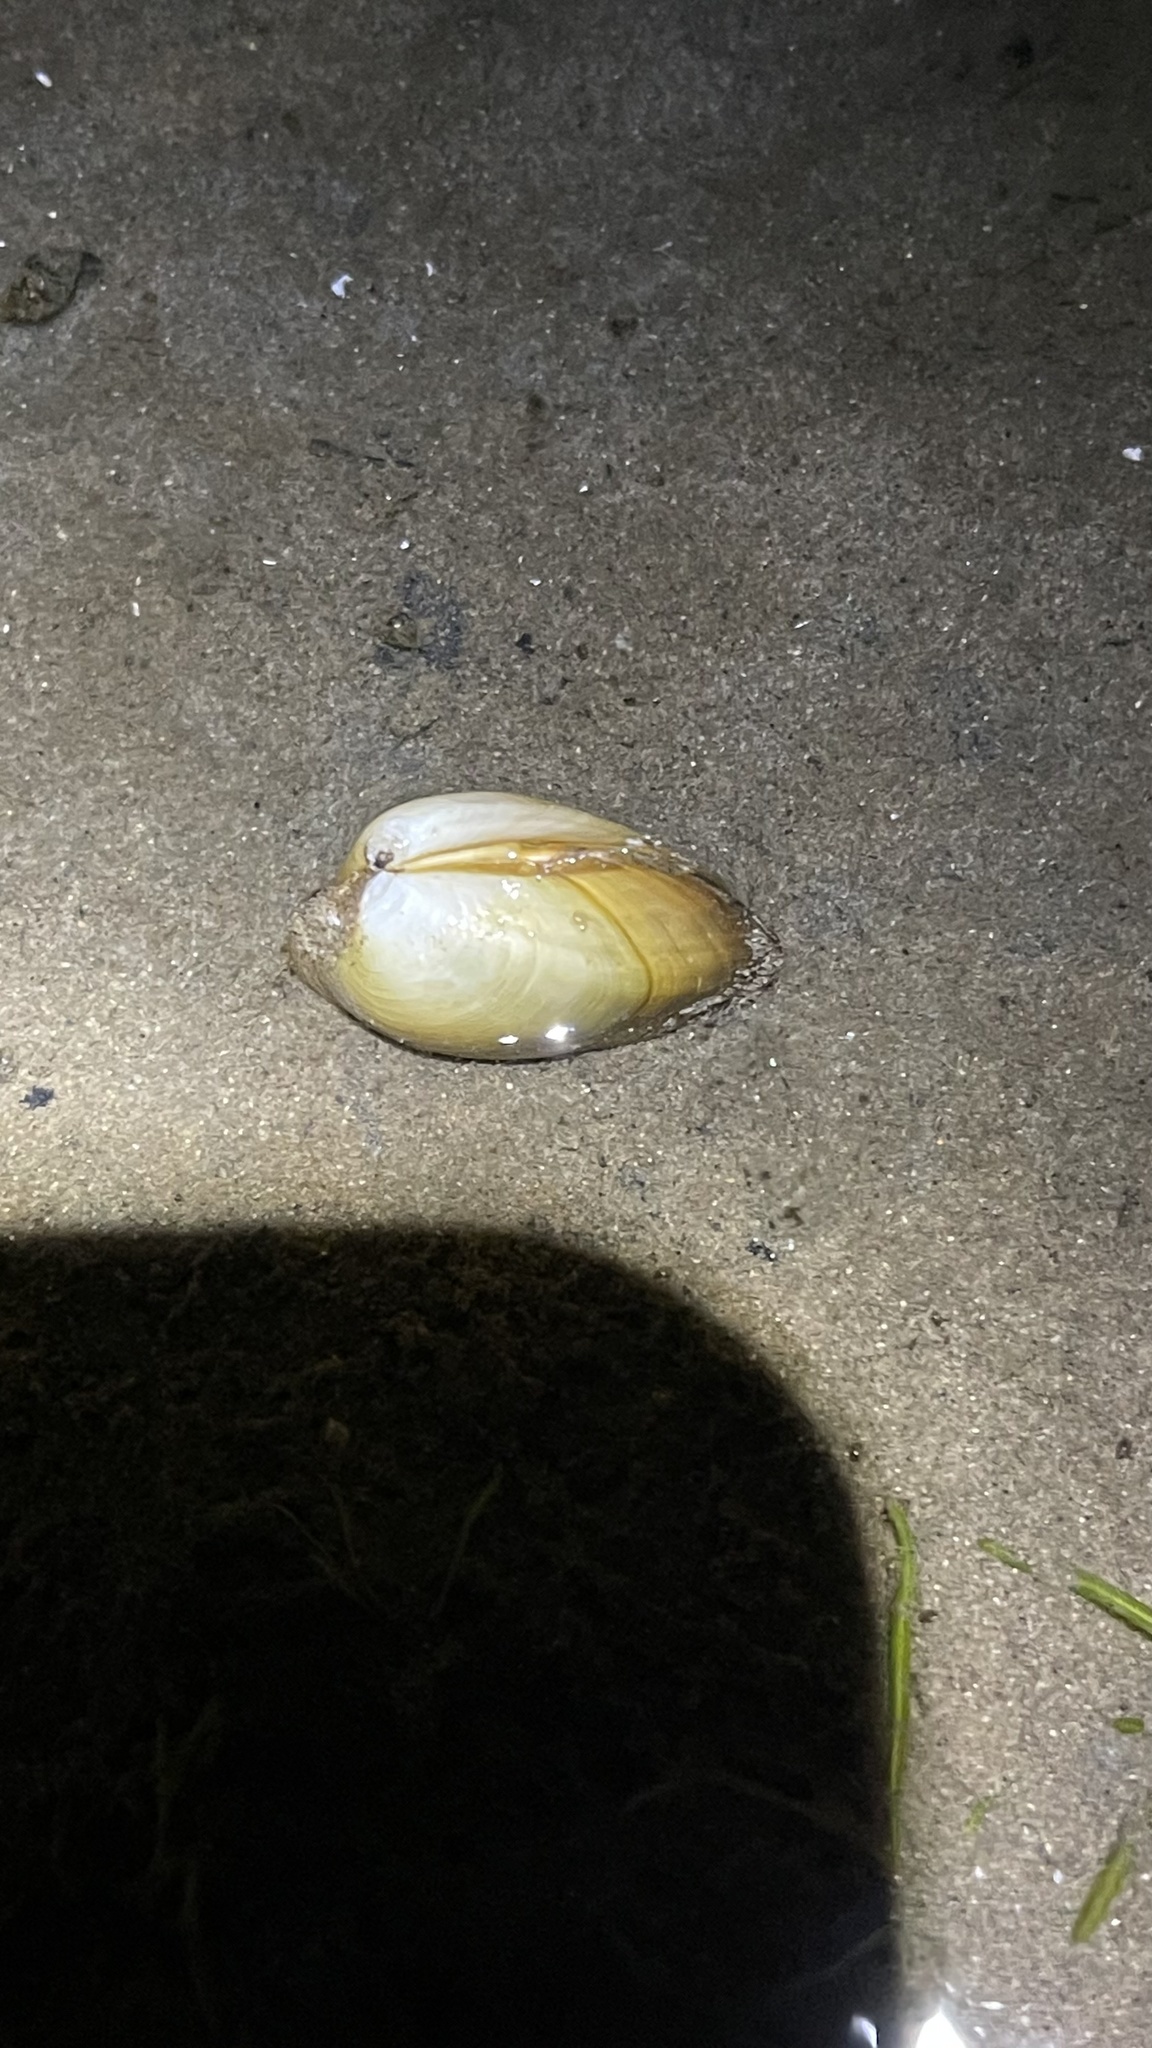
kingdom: Animalia
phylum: Mollusca
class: Bivalvia
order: Unionida
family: Unionidae
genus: Amblema
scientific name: Amblema plicata
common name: Threeridge
